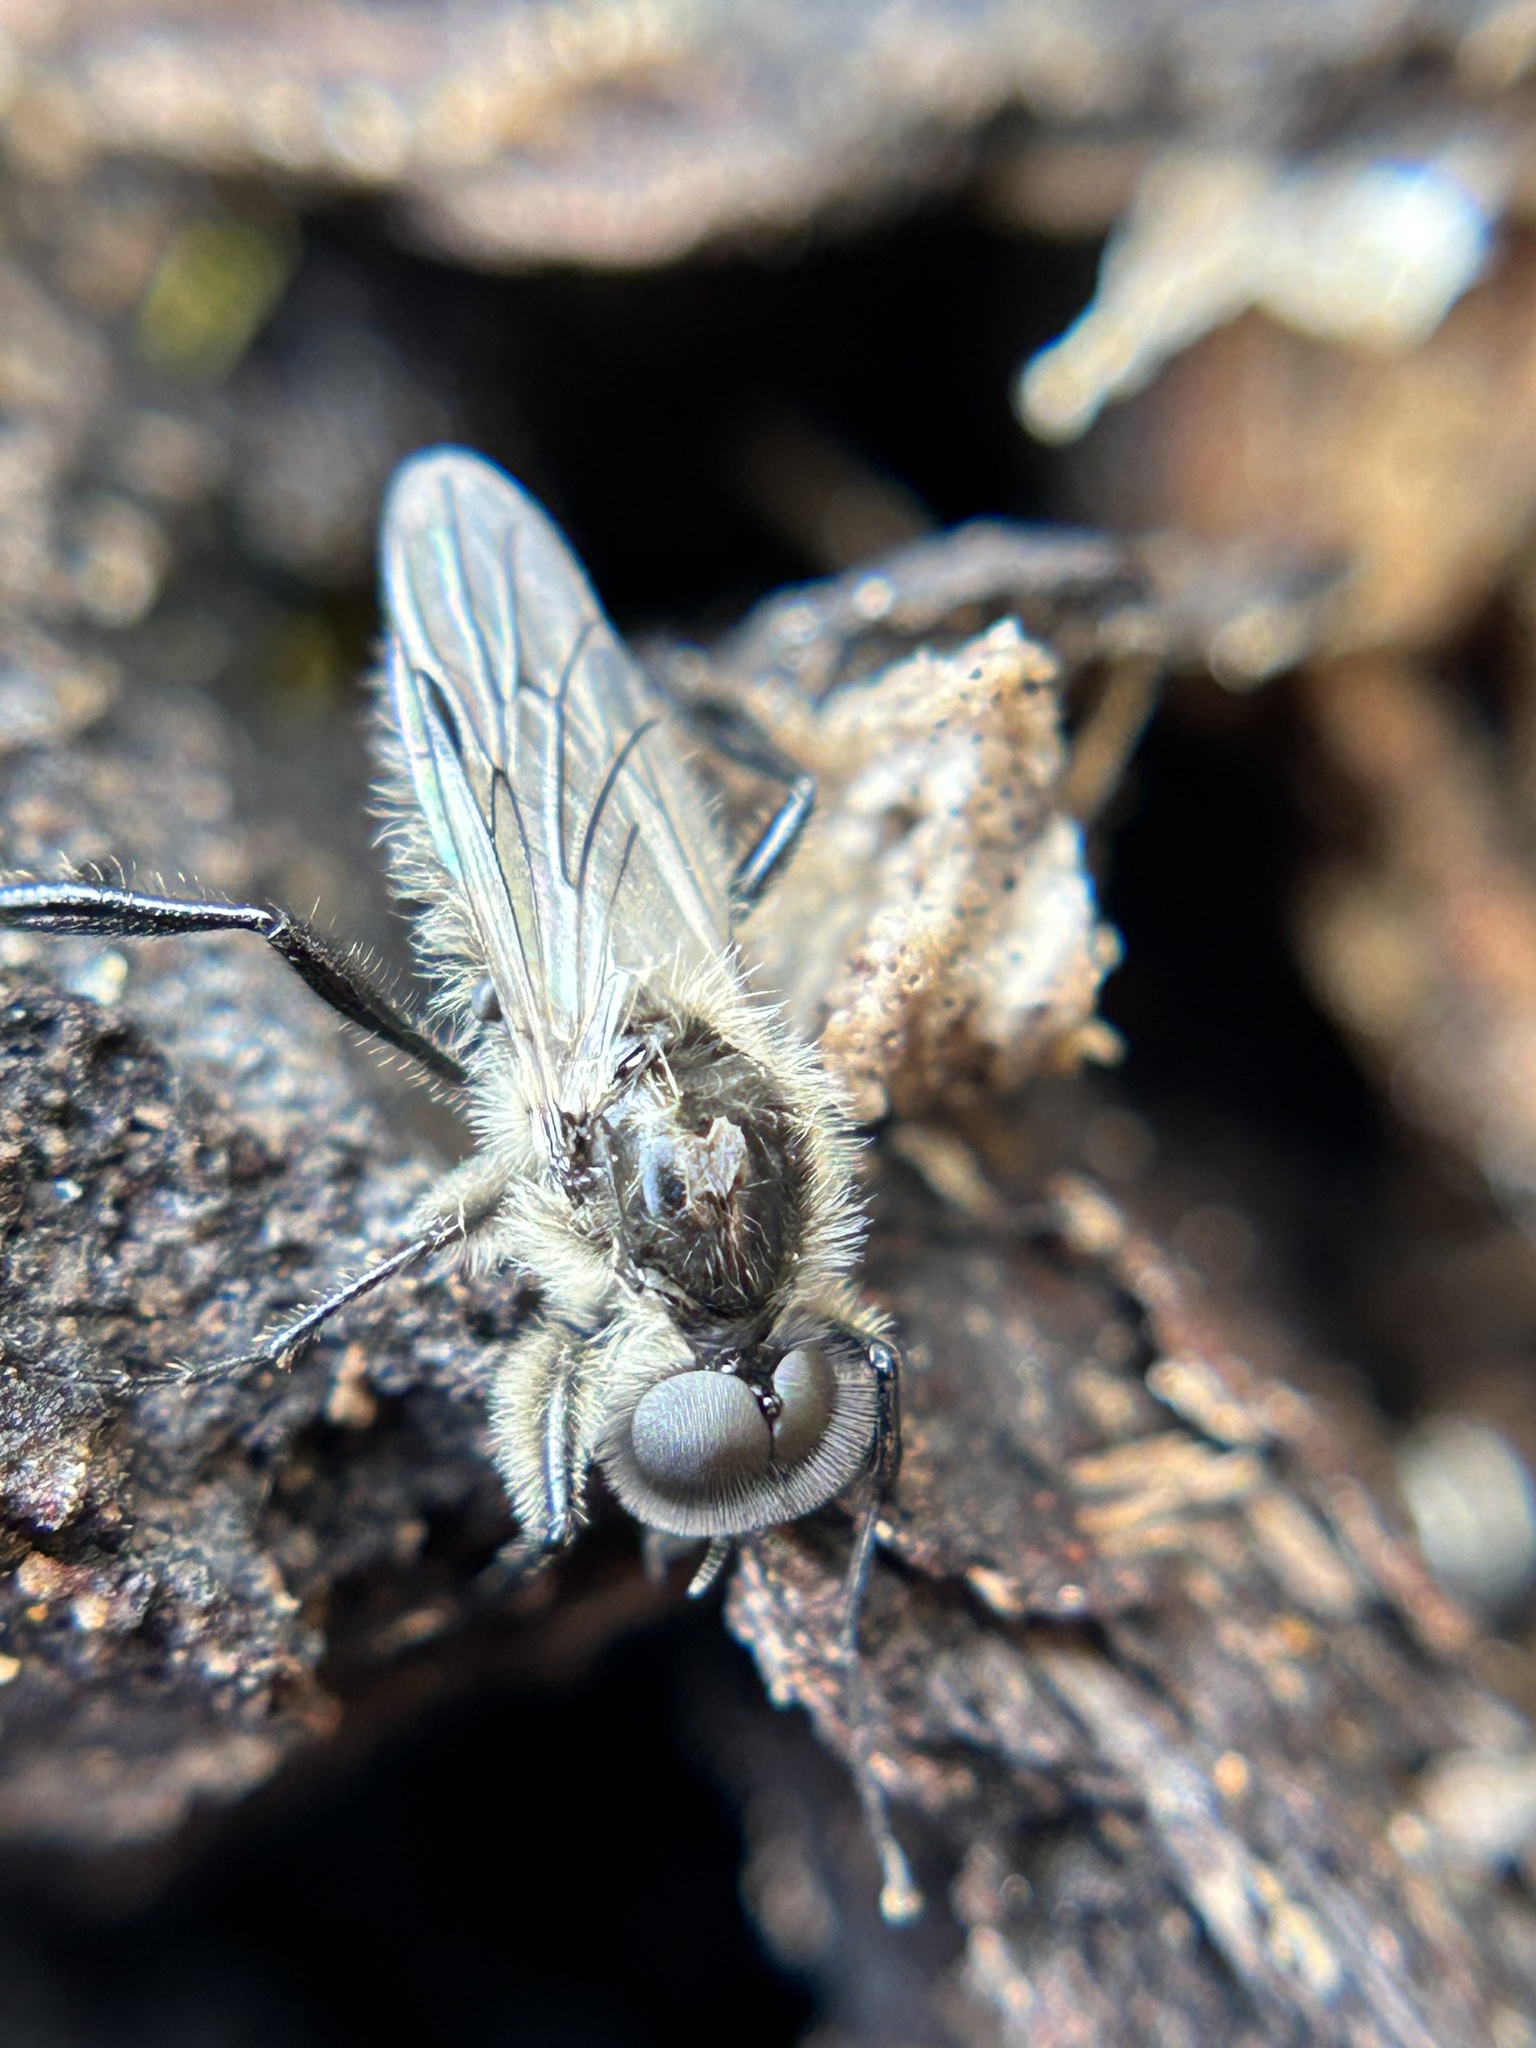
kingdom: Animalia
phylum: Arthropoda
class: Insecta
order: Diptera
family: Bibionidae
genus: Bibio
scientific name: Bibio albipennis
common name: White-winged march fly
